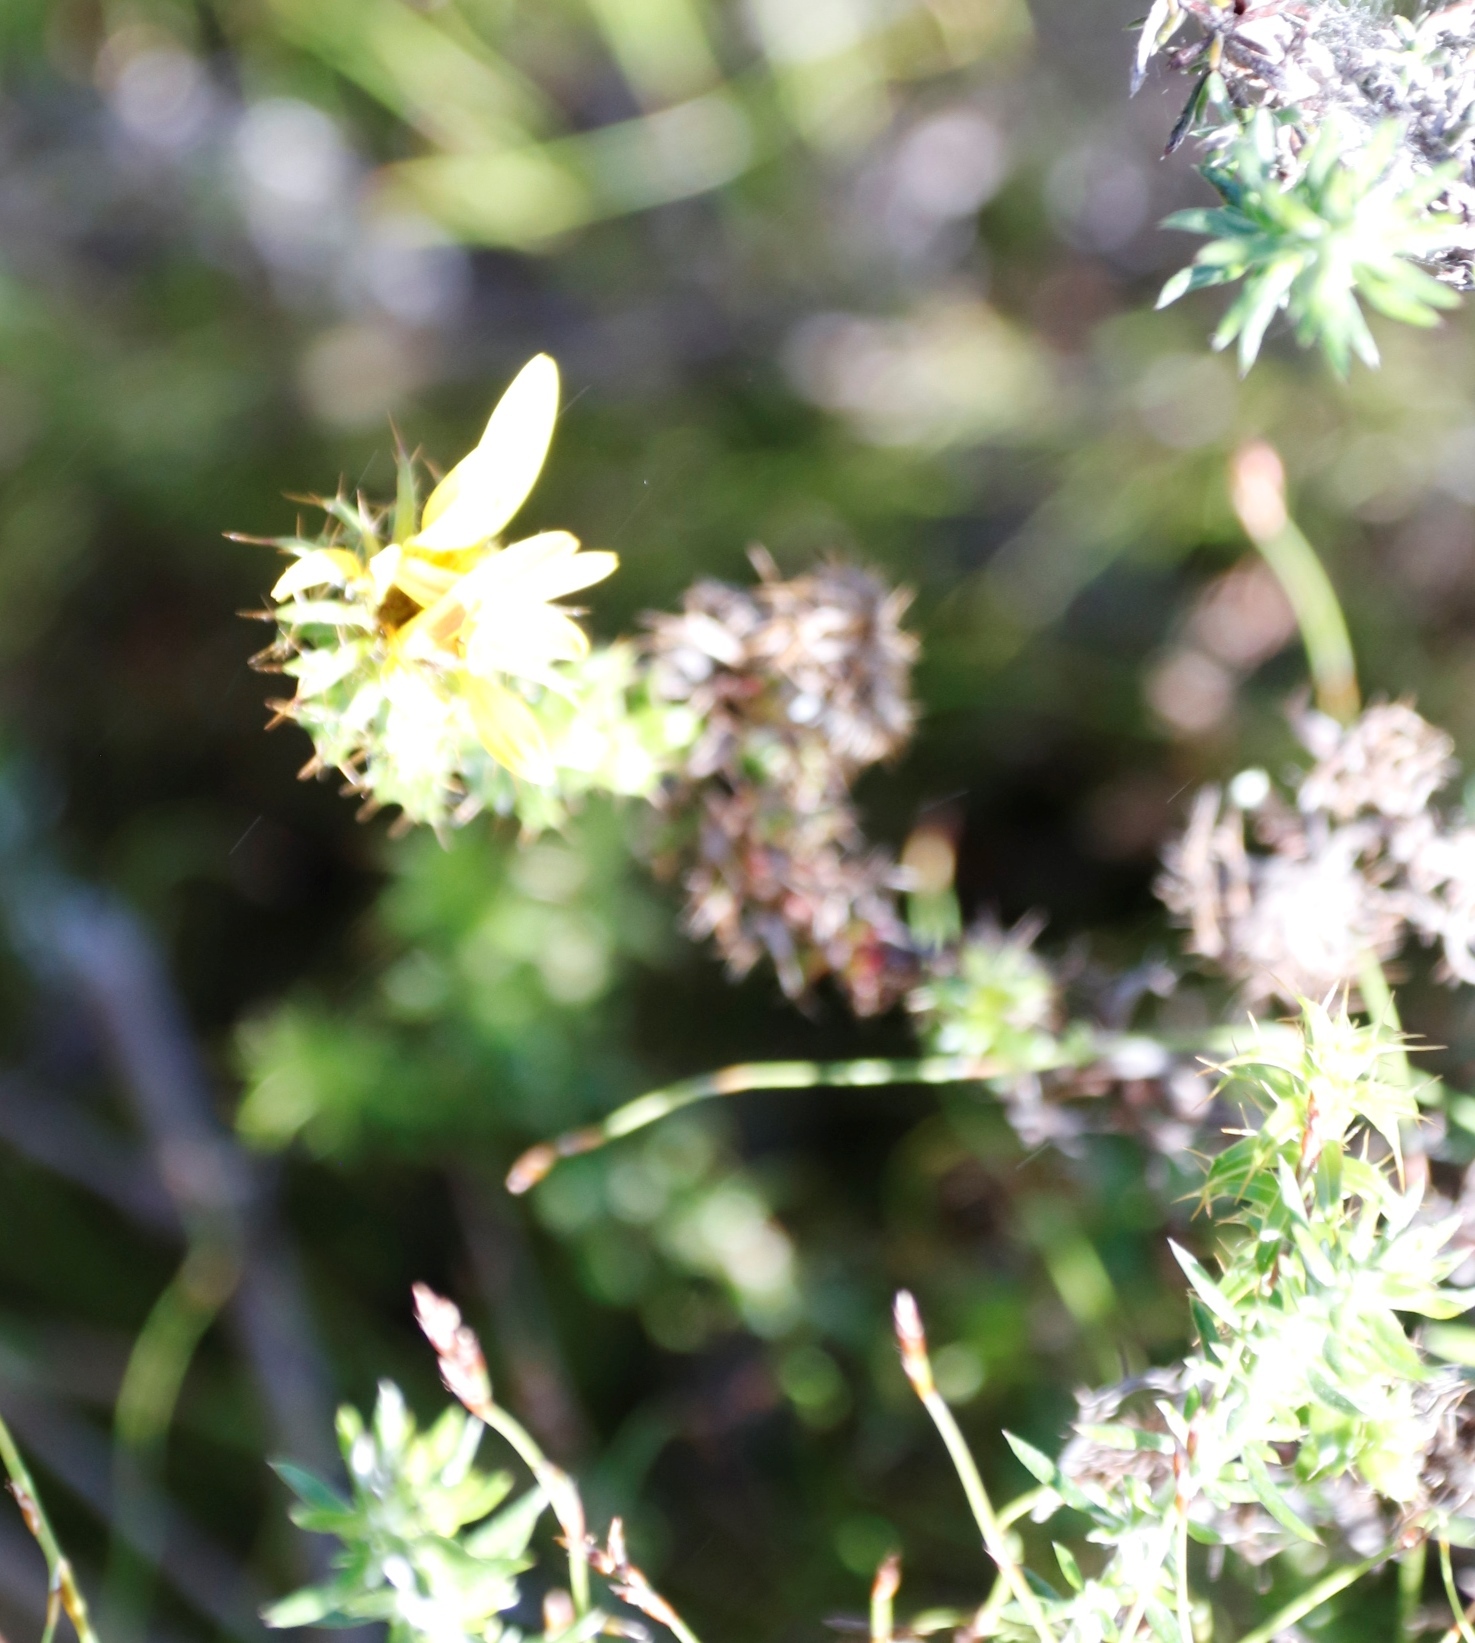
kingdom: Plantae
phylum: Tracheophyta
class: Magnoliopsida
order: Asterales
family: Asteraceae
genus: Cullumia
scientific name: Cullumia setosa
